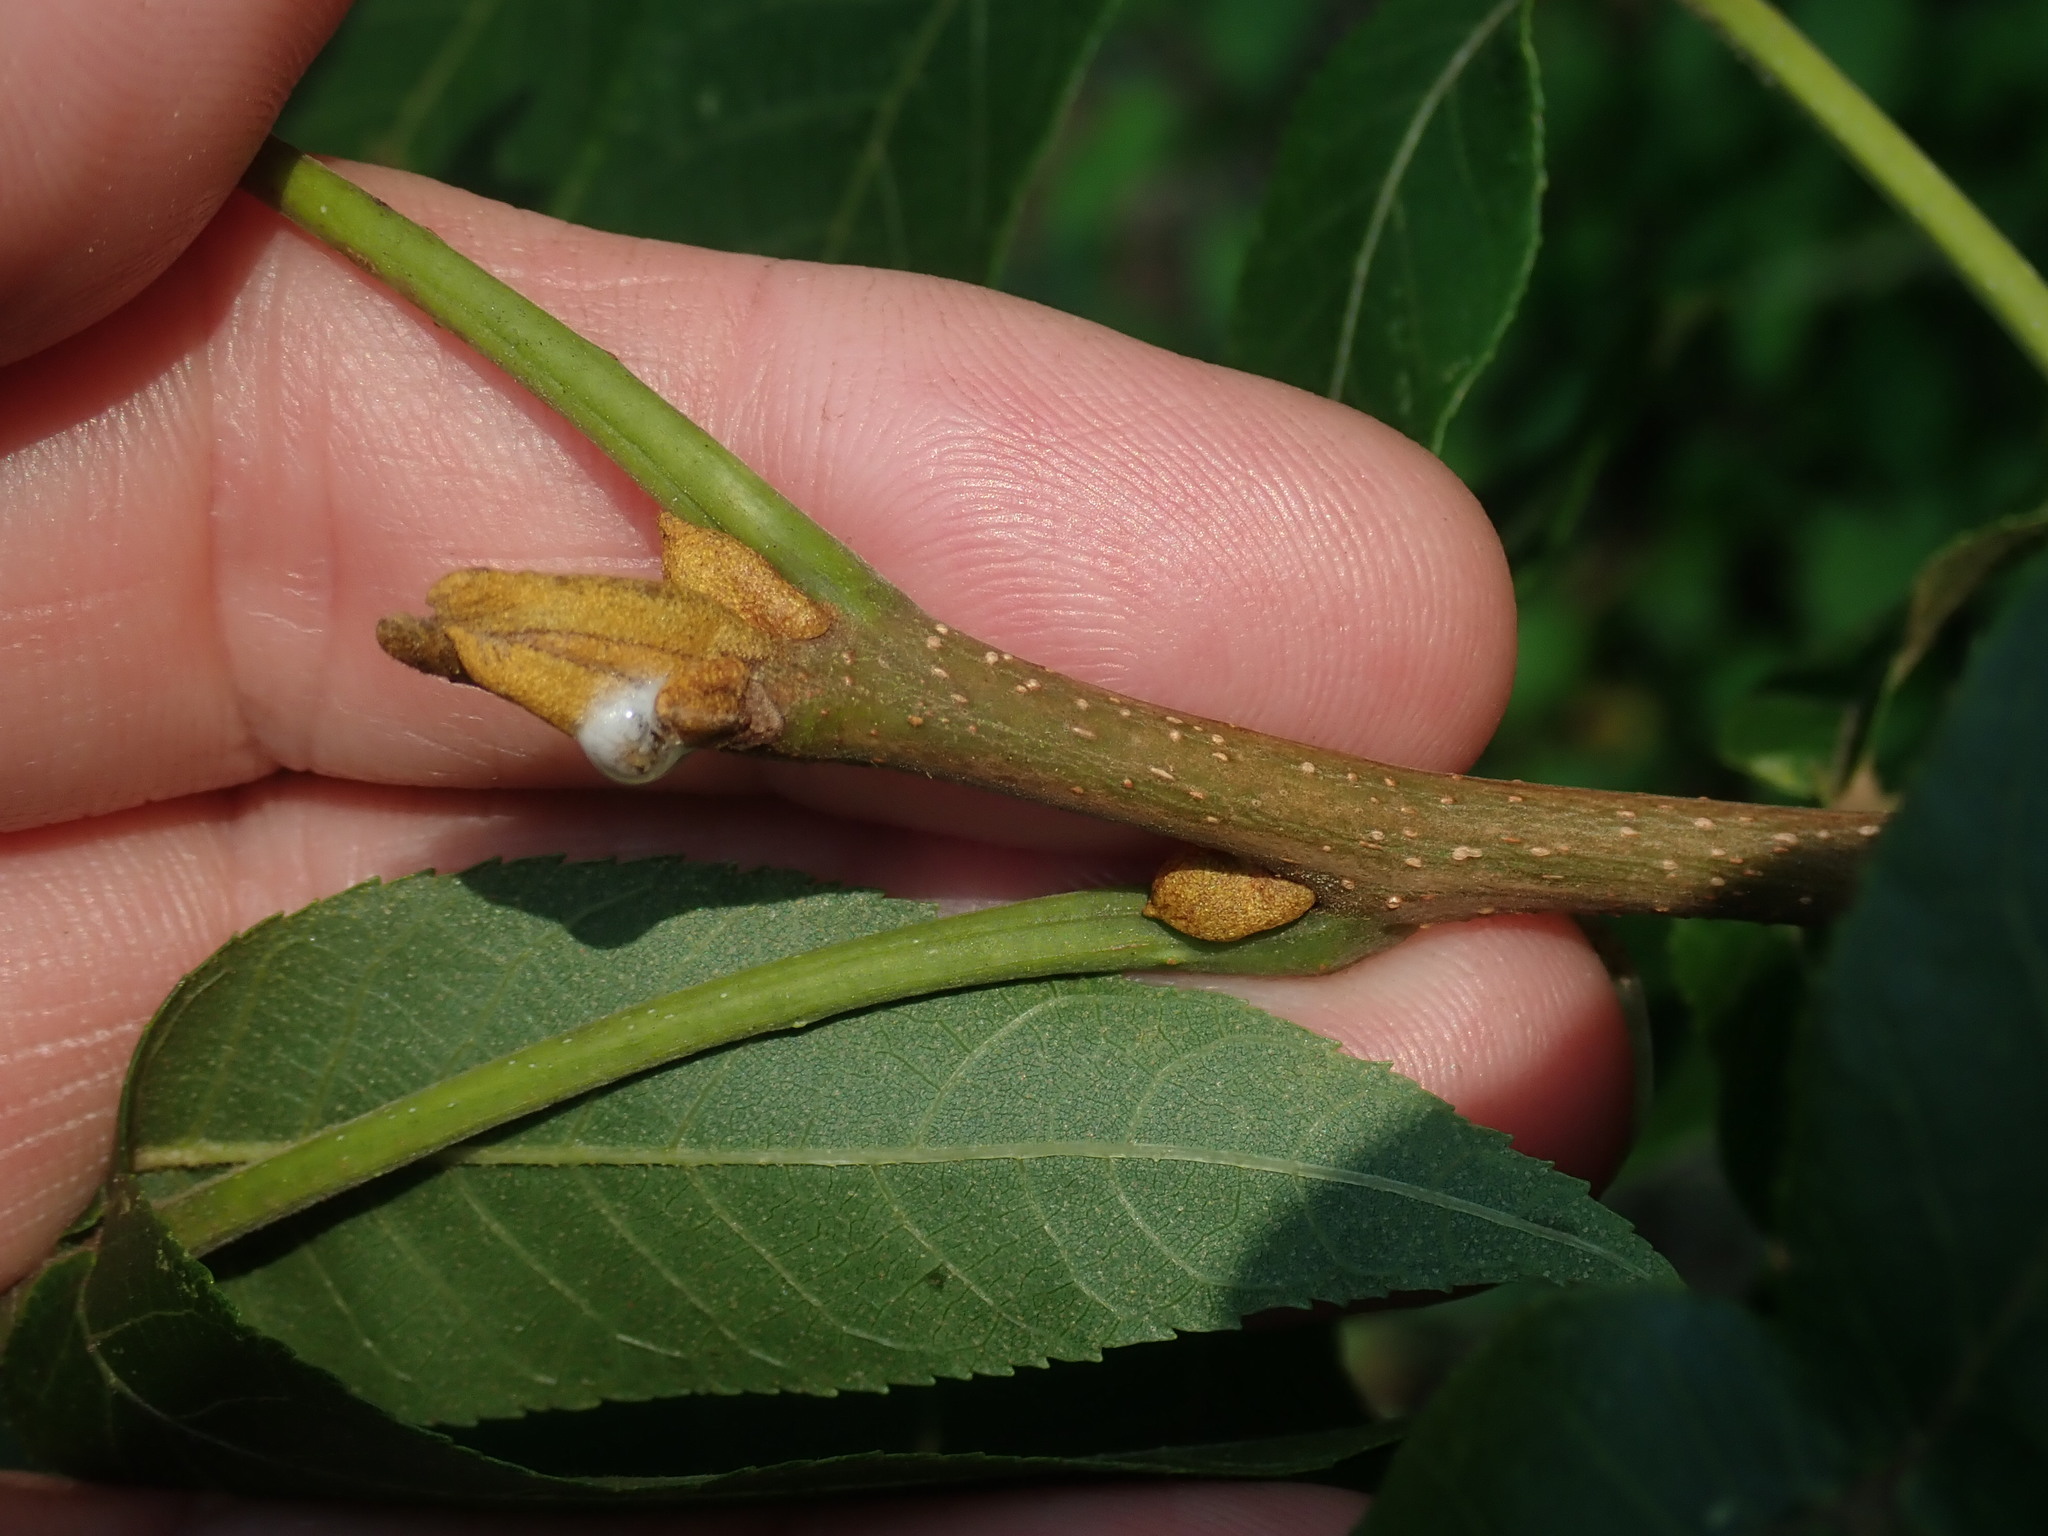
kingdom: Plantae
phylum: Tracheophyta
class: Magnoliopsida
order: Fagales
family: Juglandaceae
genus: Carya
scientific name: Carya cordiformis
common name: Bitternut hickory
